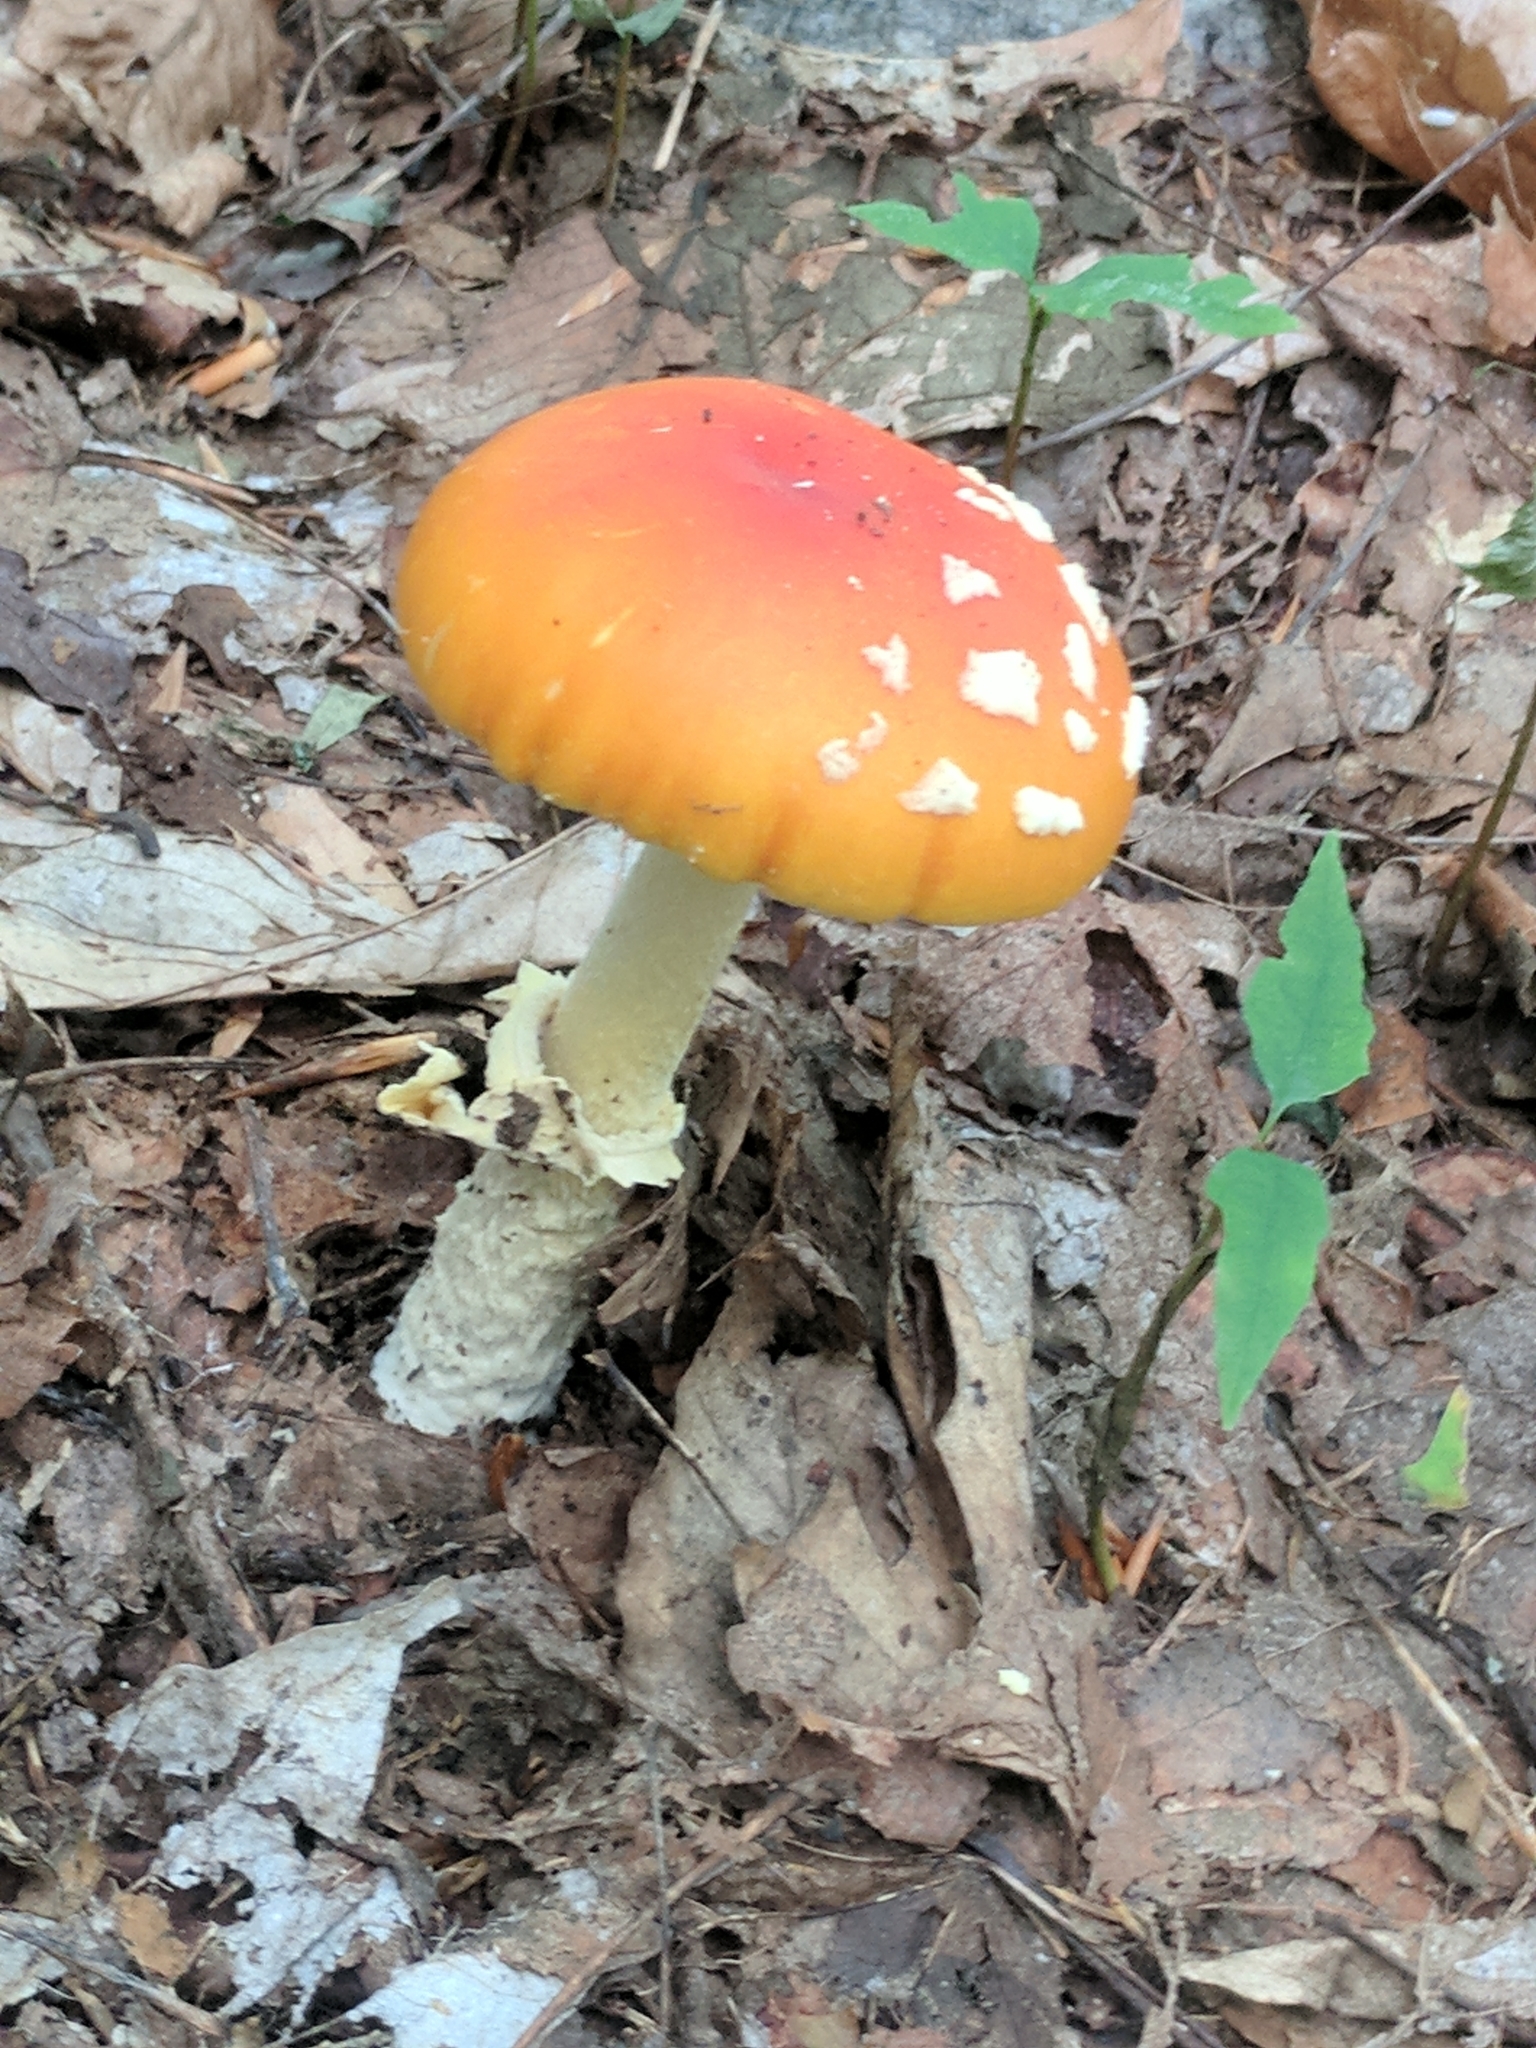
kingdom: Fungi
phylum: Basidiomycota
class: Agaricomycetes
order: Agaricales
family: Amanitaceae
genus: Amanita
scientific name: Amanita flavoconia
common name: Yellow patches
